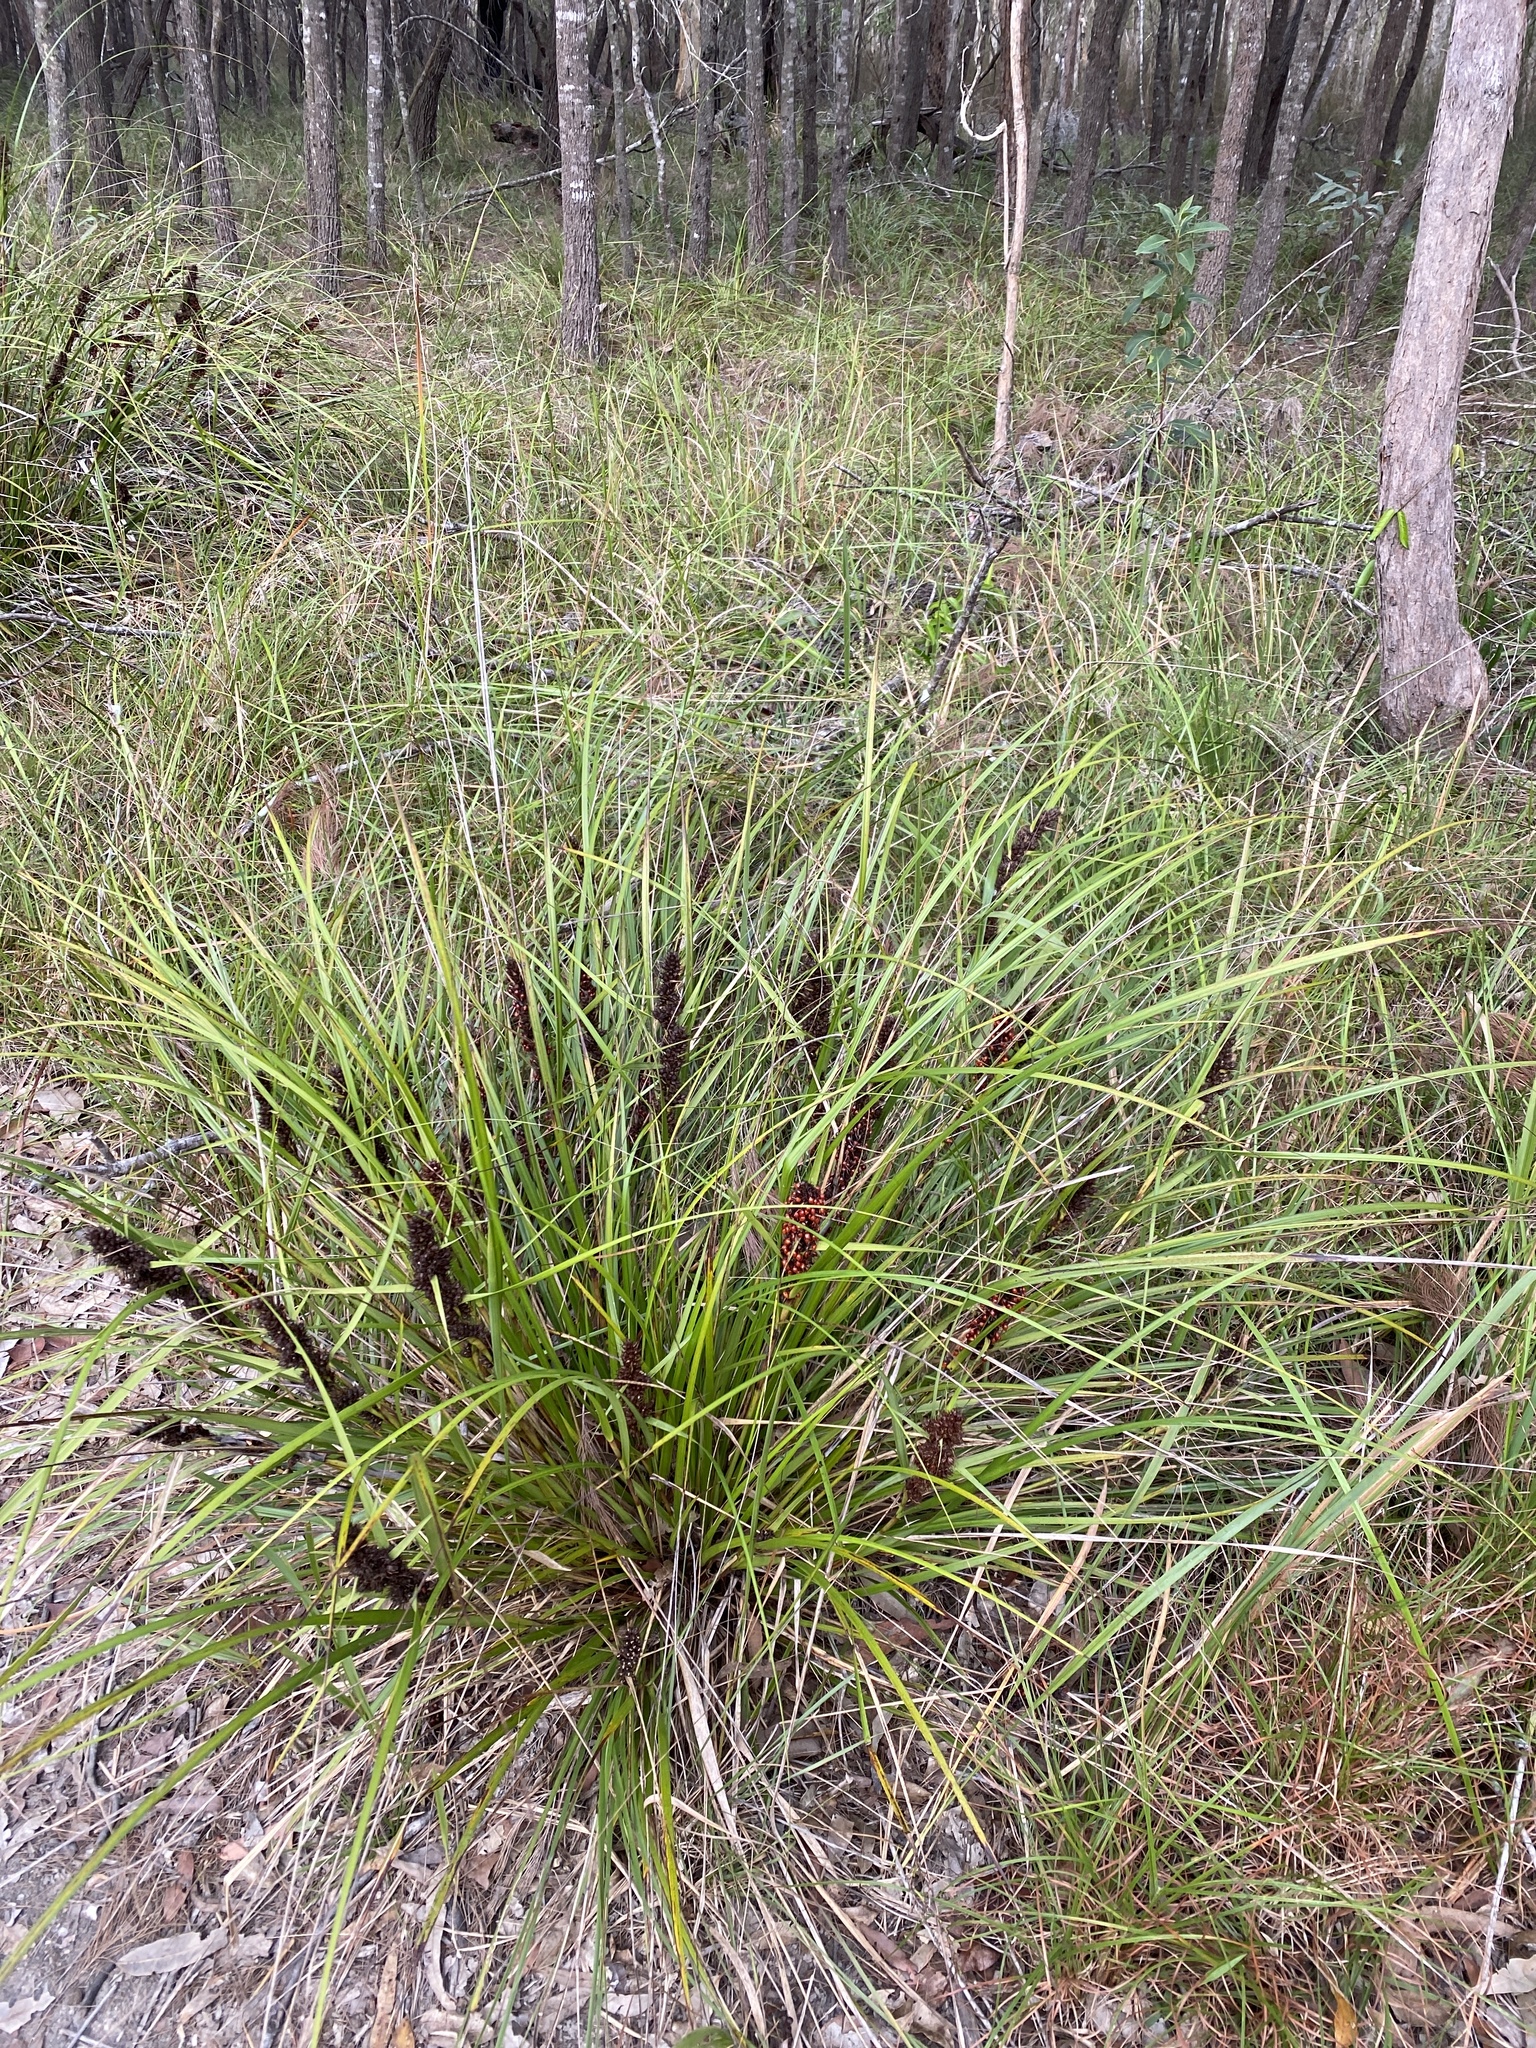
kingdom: Plantae
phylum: Tracheophyta
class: Liliopsida
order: Poales
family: Cyperaceae
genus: Gahnia
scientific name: Gahnia aspera
